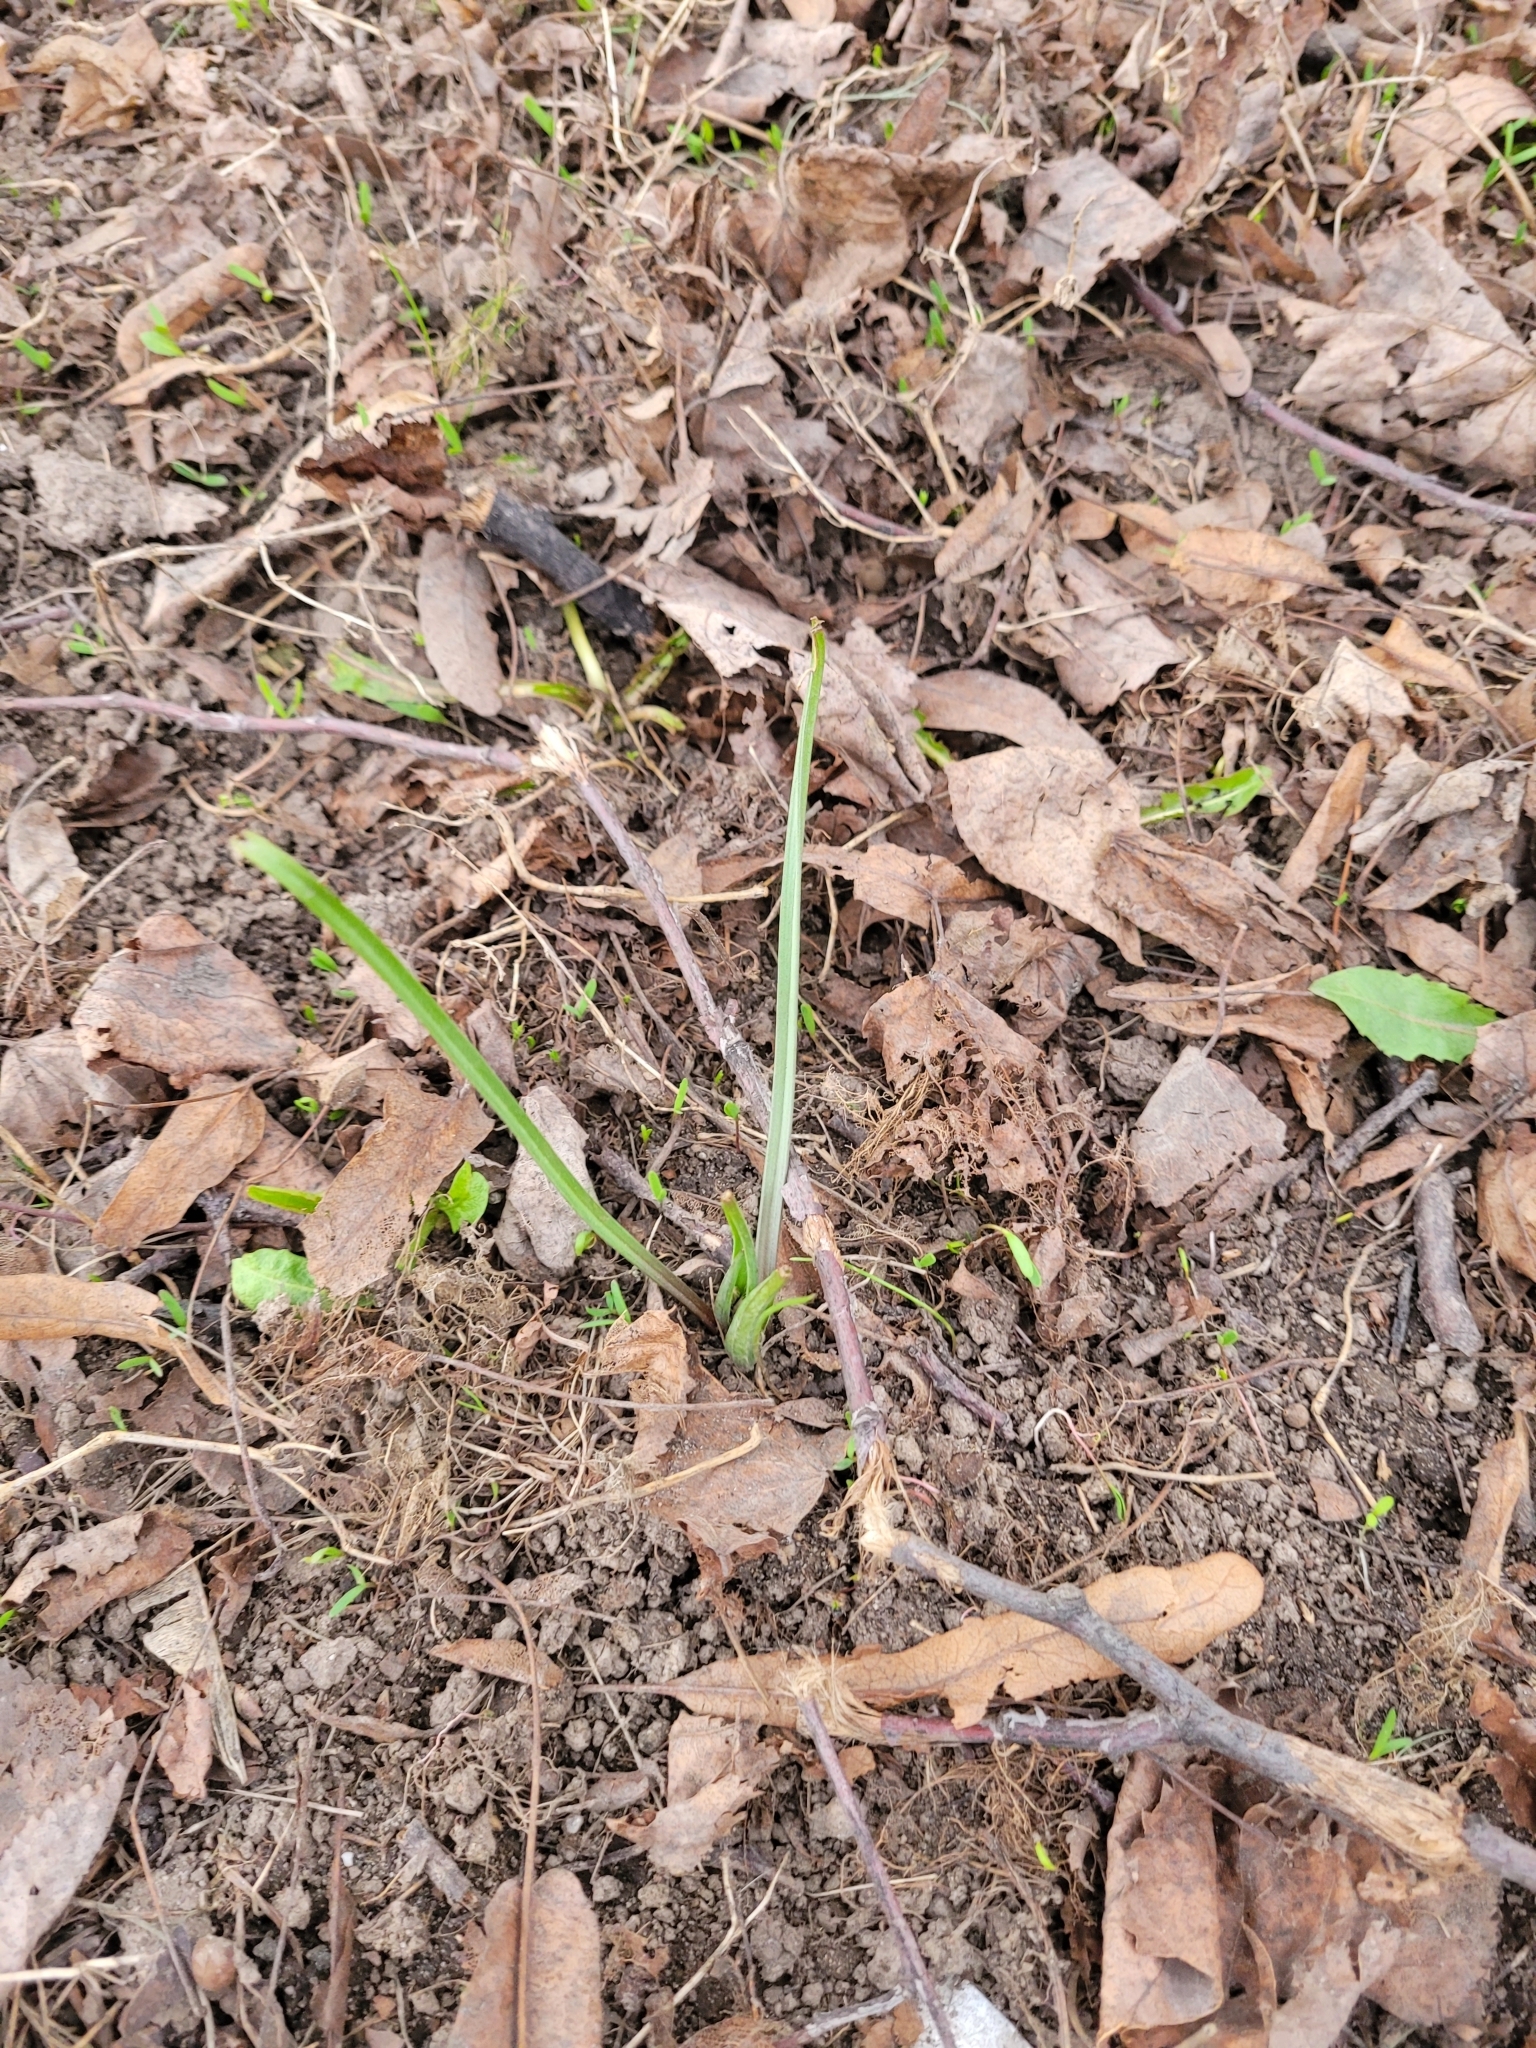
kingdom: Plantae
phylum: Tracheophyta
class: Liliopsida
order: Liliales
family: Liliaceae
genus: Gagea
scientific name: Gagea fragifera
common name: Lily
